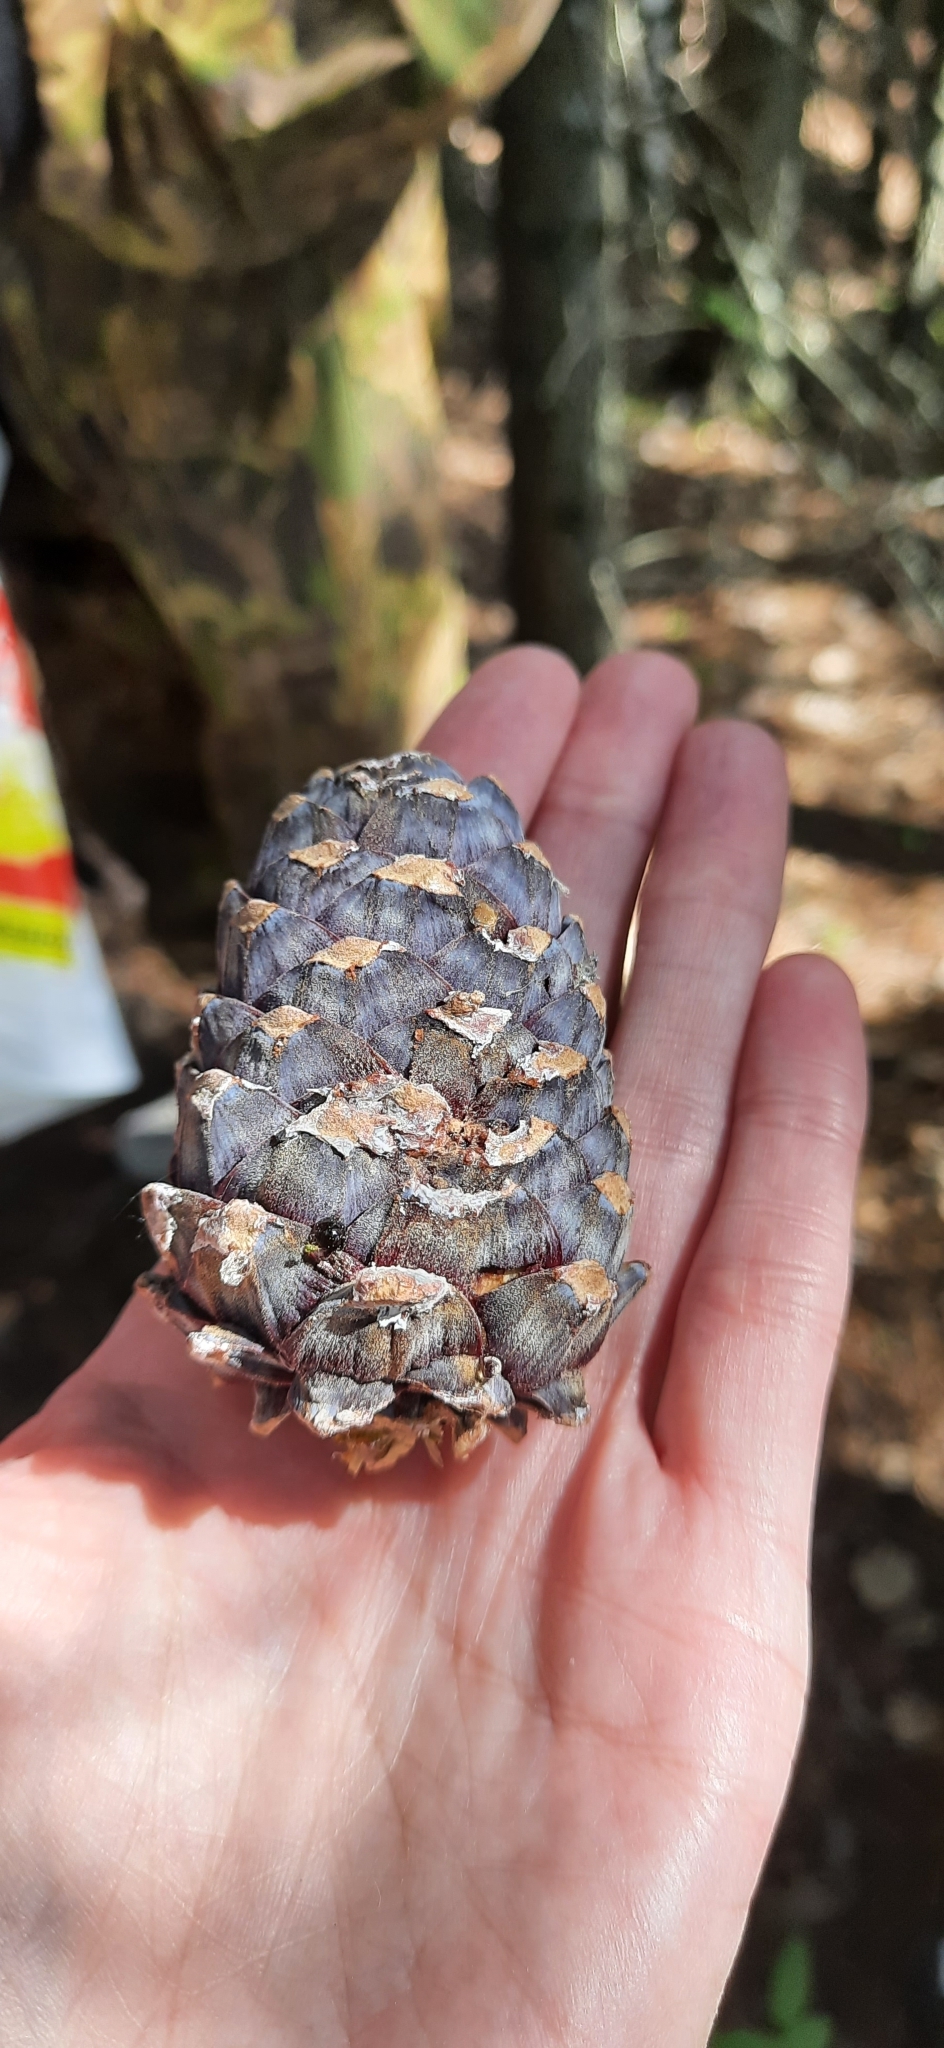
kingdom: Plantae
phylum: Tracheophyta
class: Pinopsida
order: Pinales
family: Pinaceae
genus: Pinus
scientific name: Pinus sibirica
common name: Siberian pine
